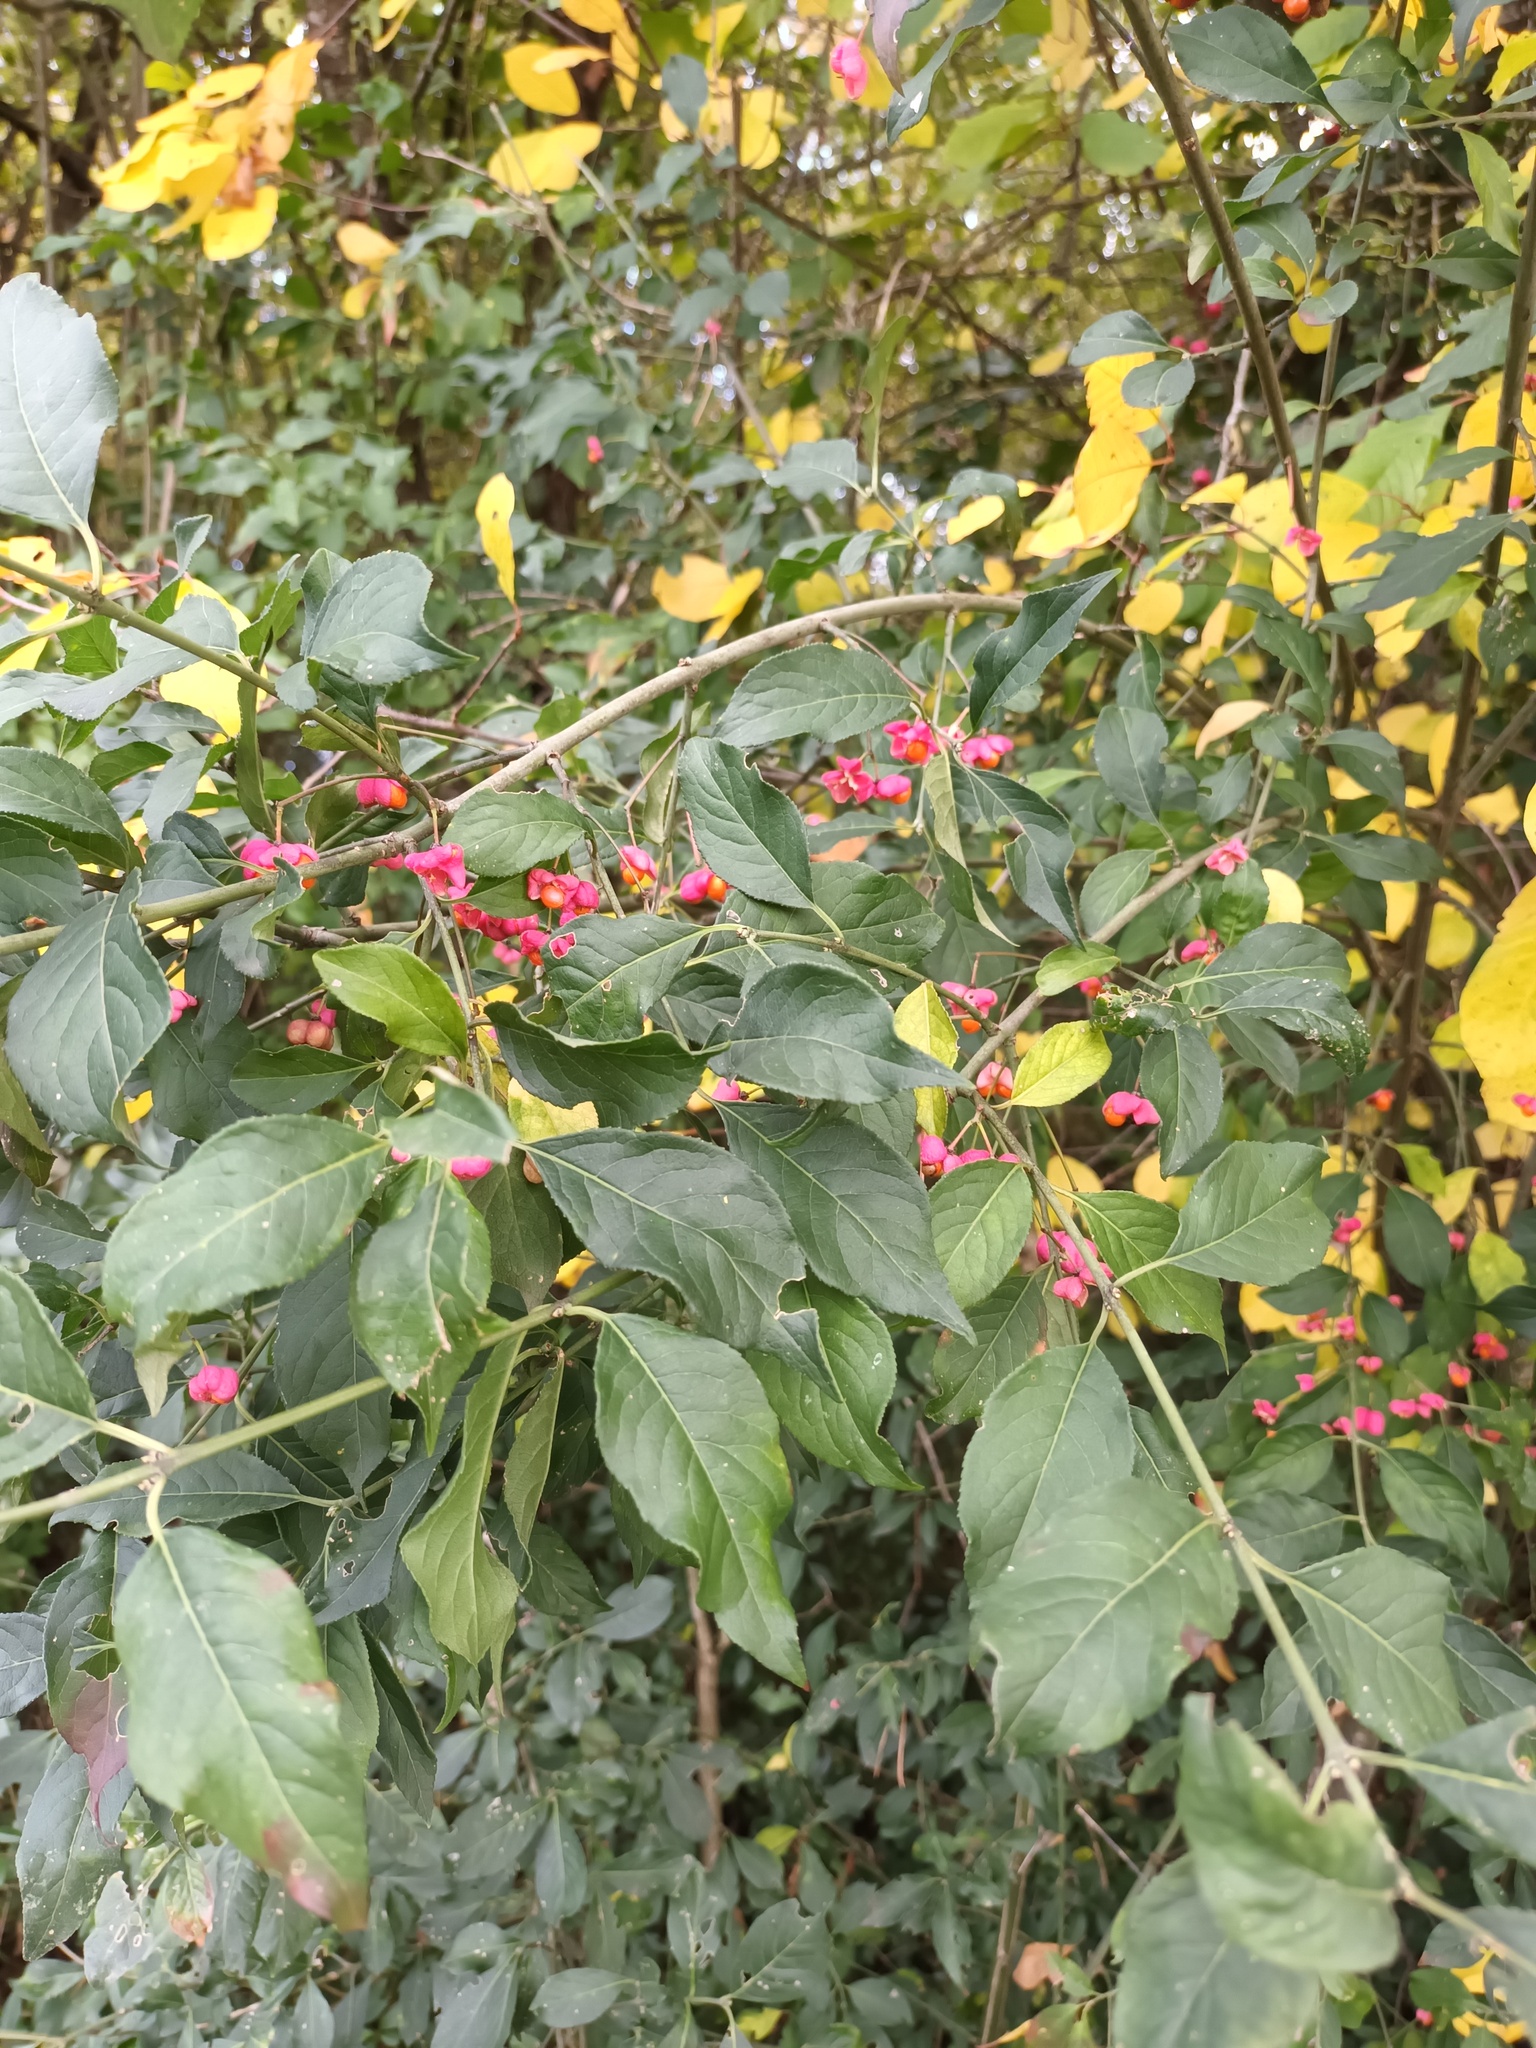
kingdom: Plantae
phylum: Tracheophyta
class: Magnoliopsida
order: Celastrales
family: Celastraceae
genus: Euonymus
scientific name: Euonymus europaeus
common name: Spindle
